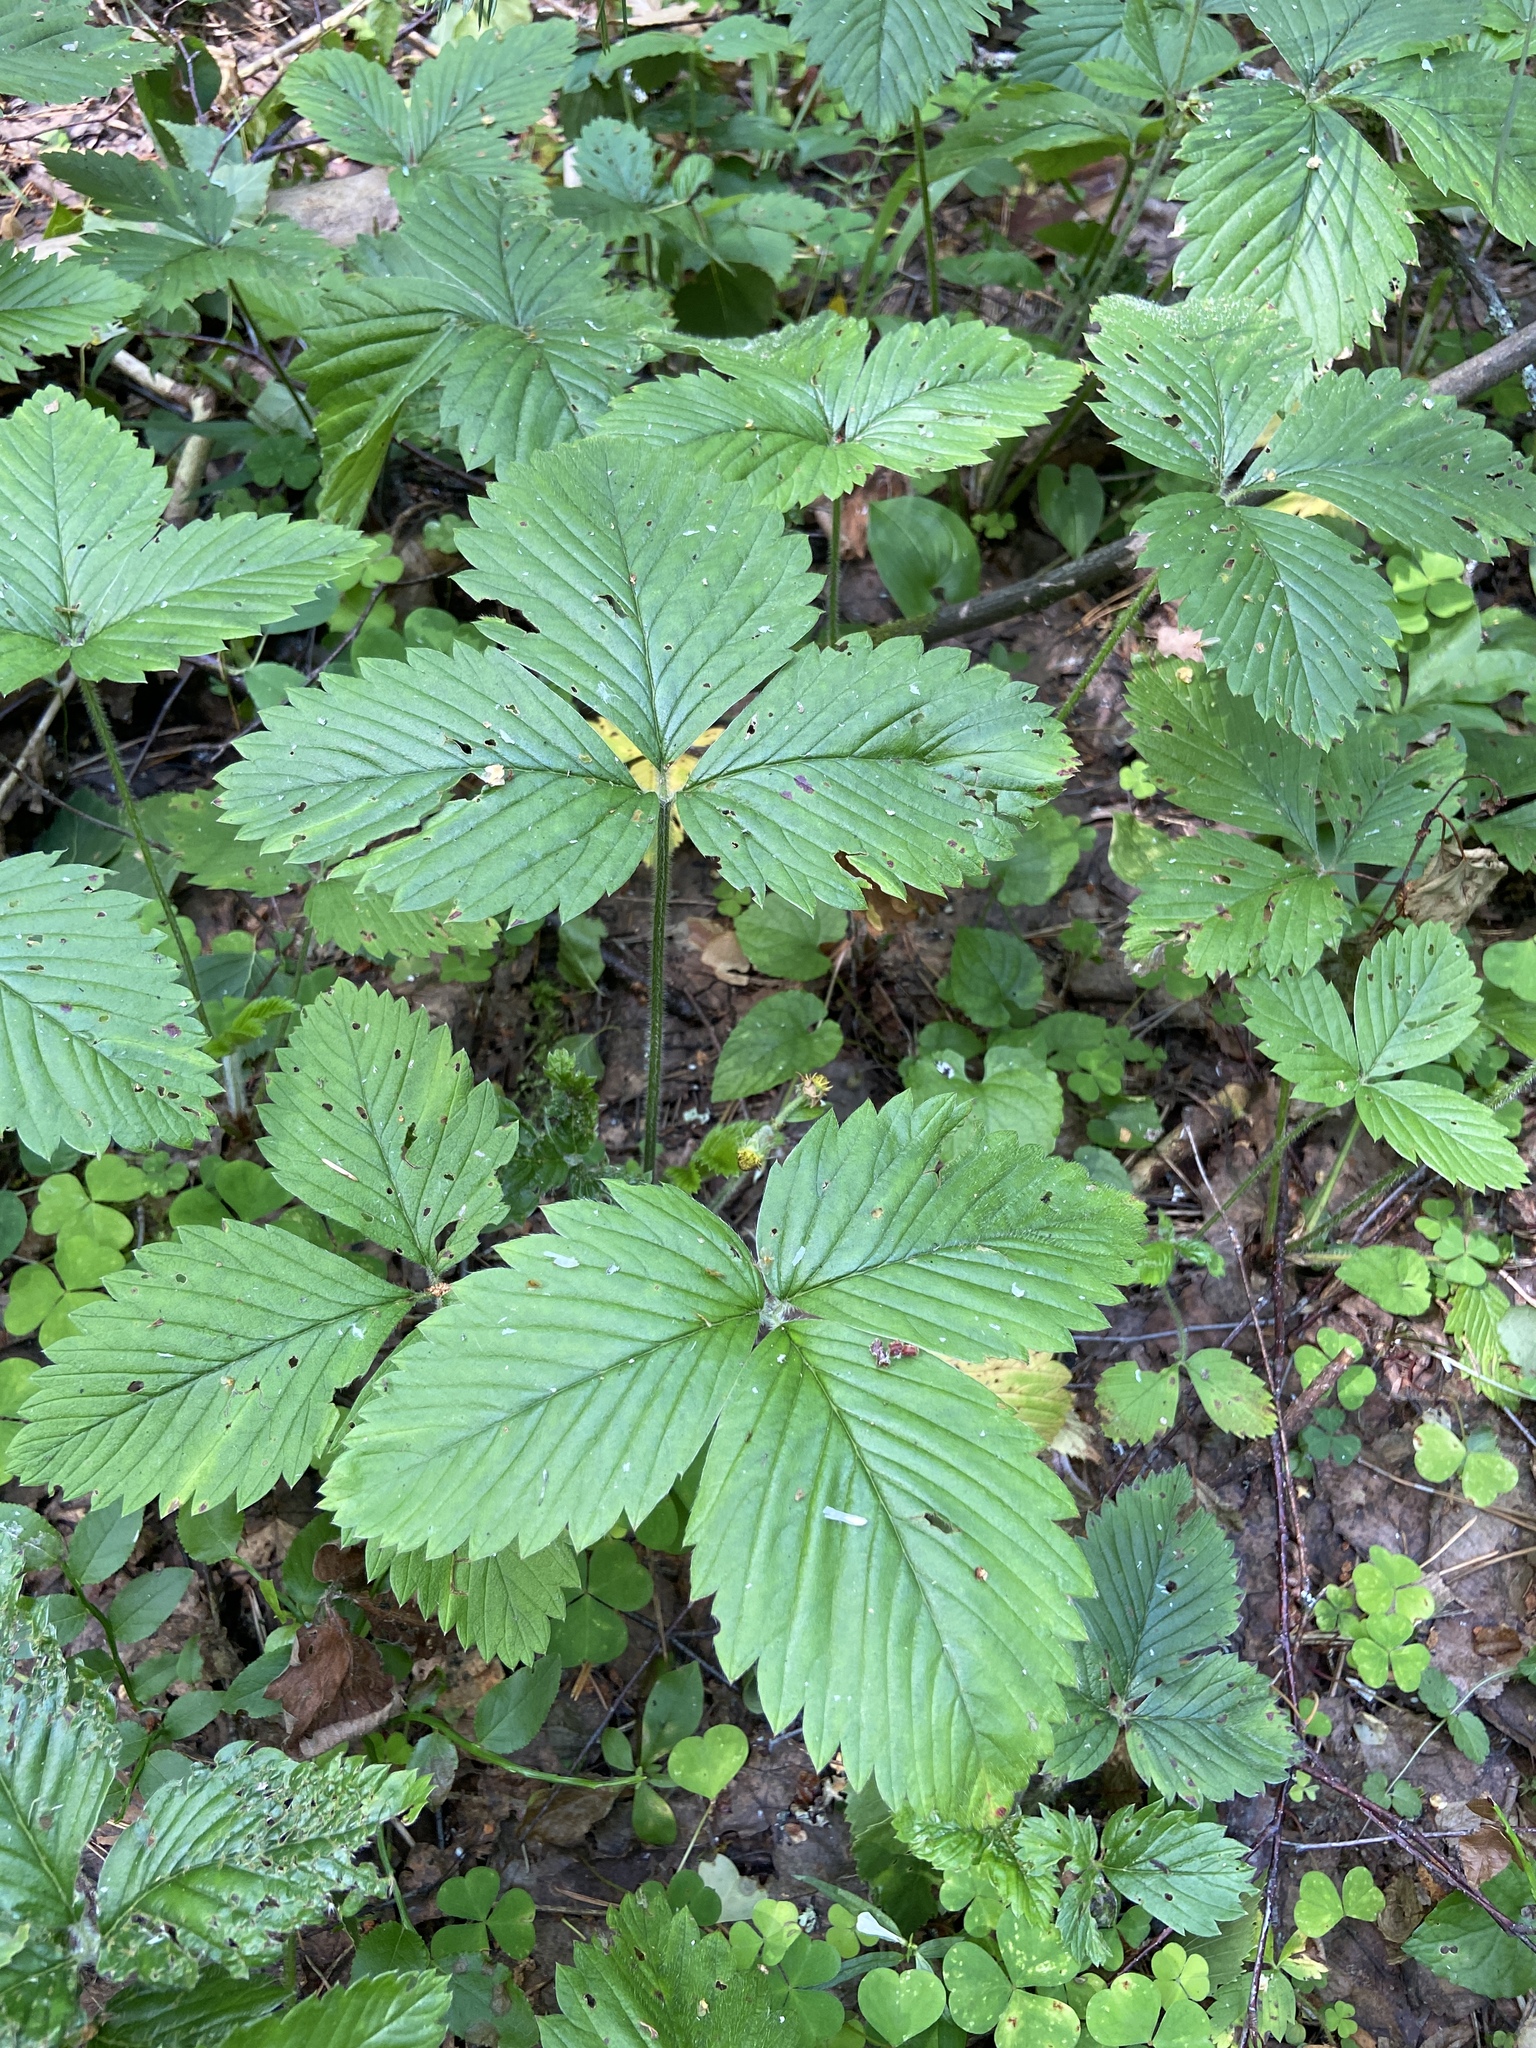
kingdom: Plantae
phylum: Tracheophyta
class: Magnoliopsida
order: Rosales
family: Rosaceae
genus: Fragaria
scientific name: Fragaria moschata
